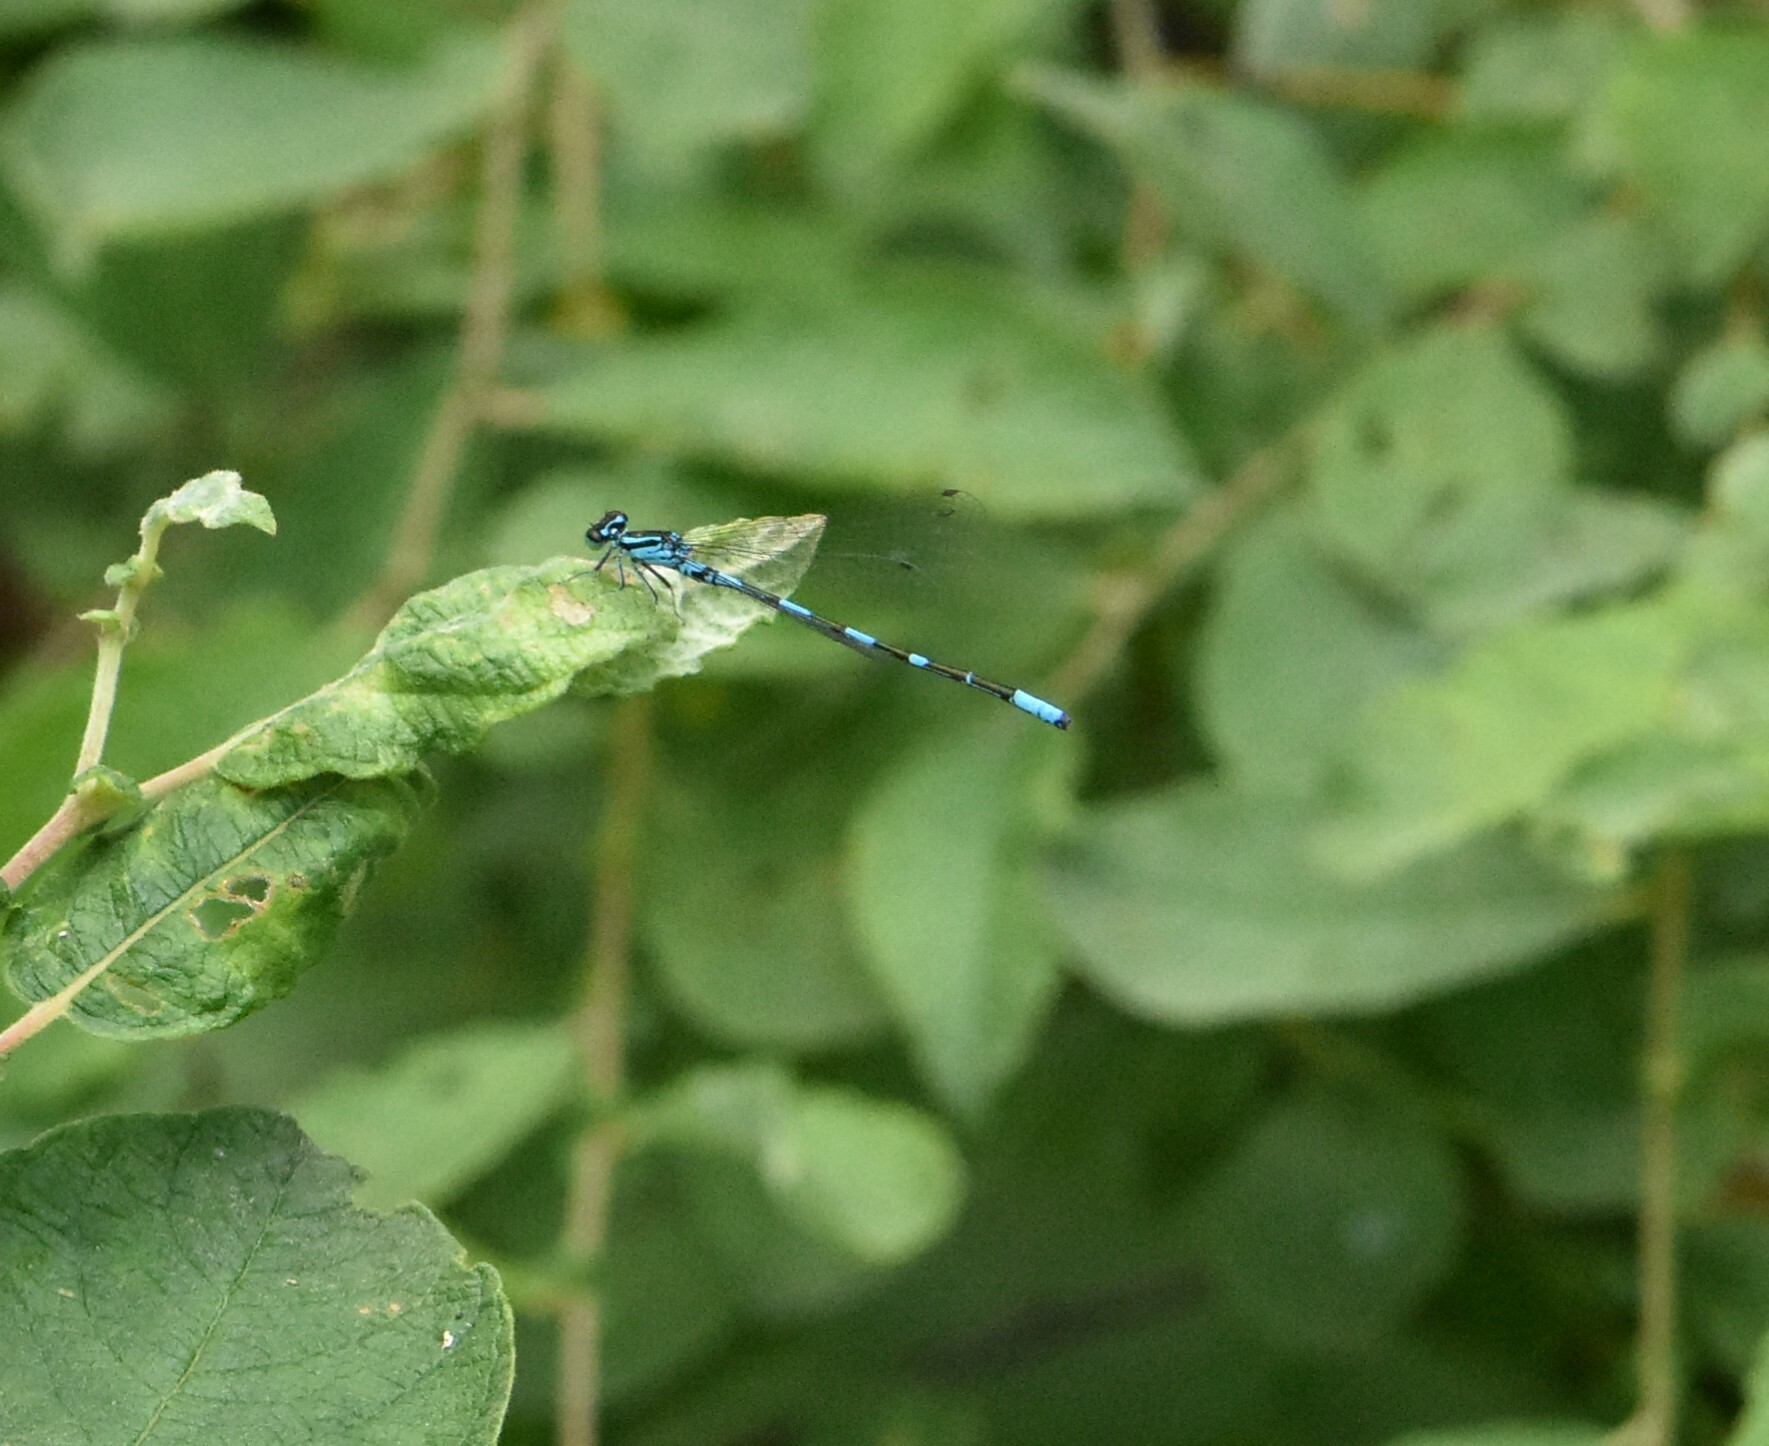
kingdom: Animalia
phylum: Arthropoda
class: Insecta
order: Odonata
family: Coenagrionidae
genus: Coenagrion
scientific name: Coenagrion johanssoni
